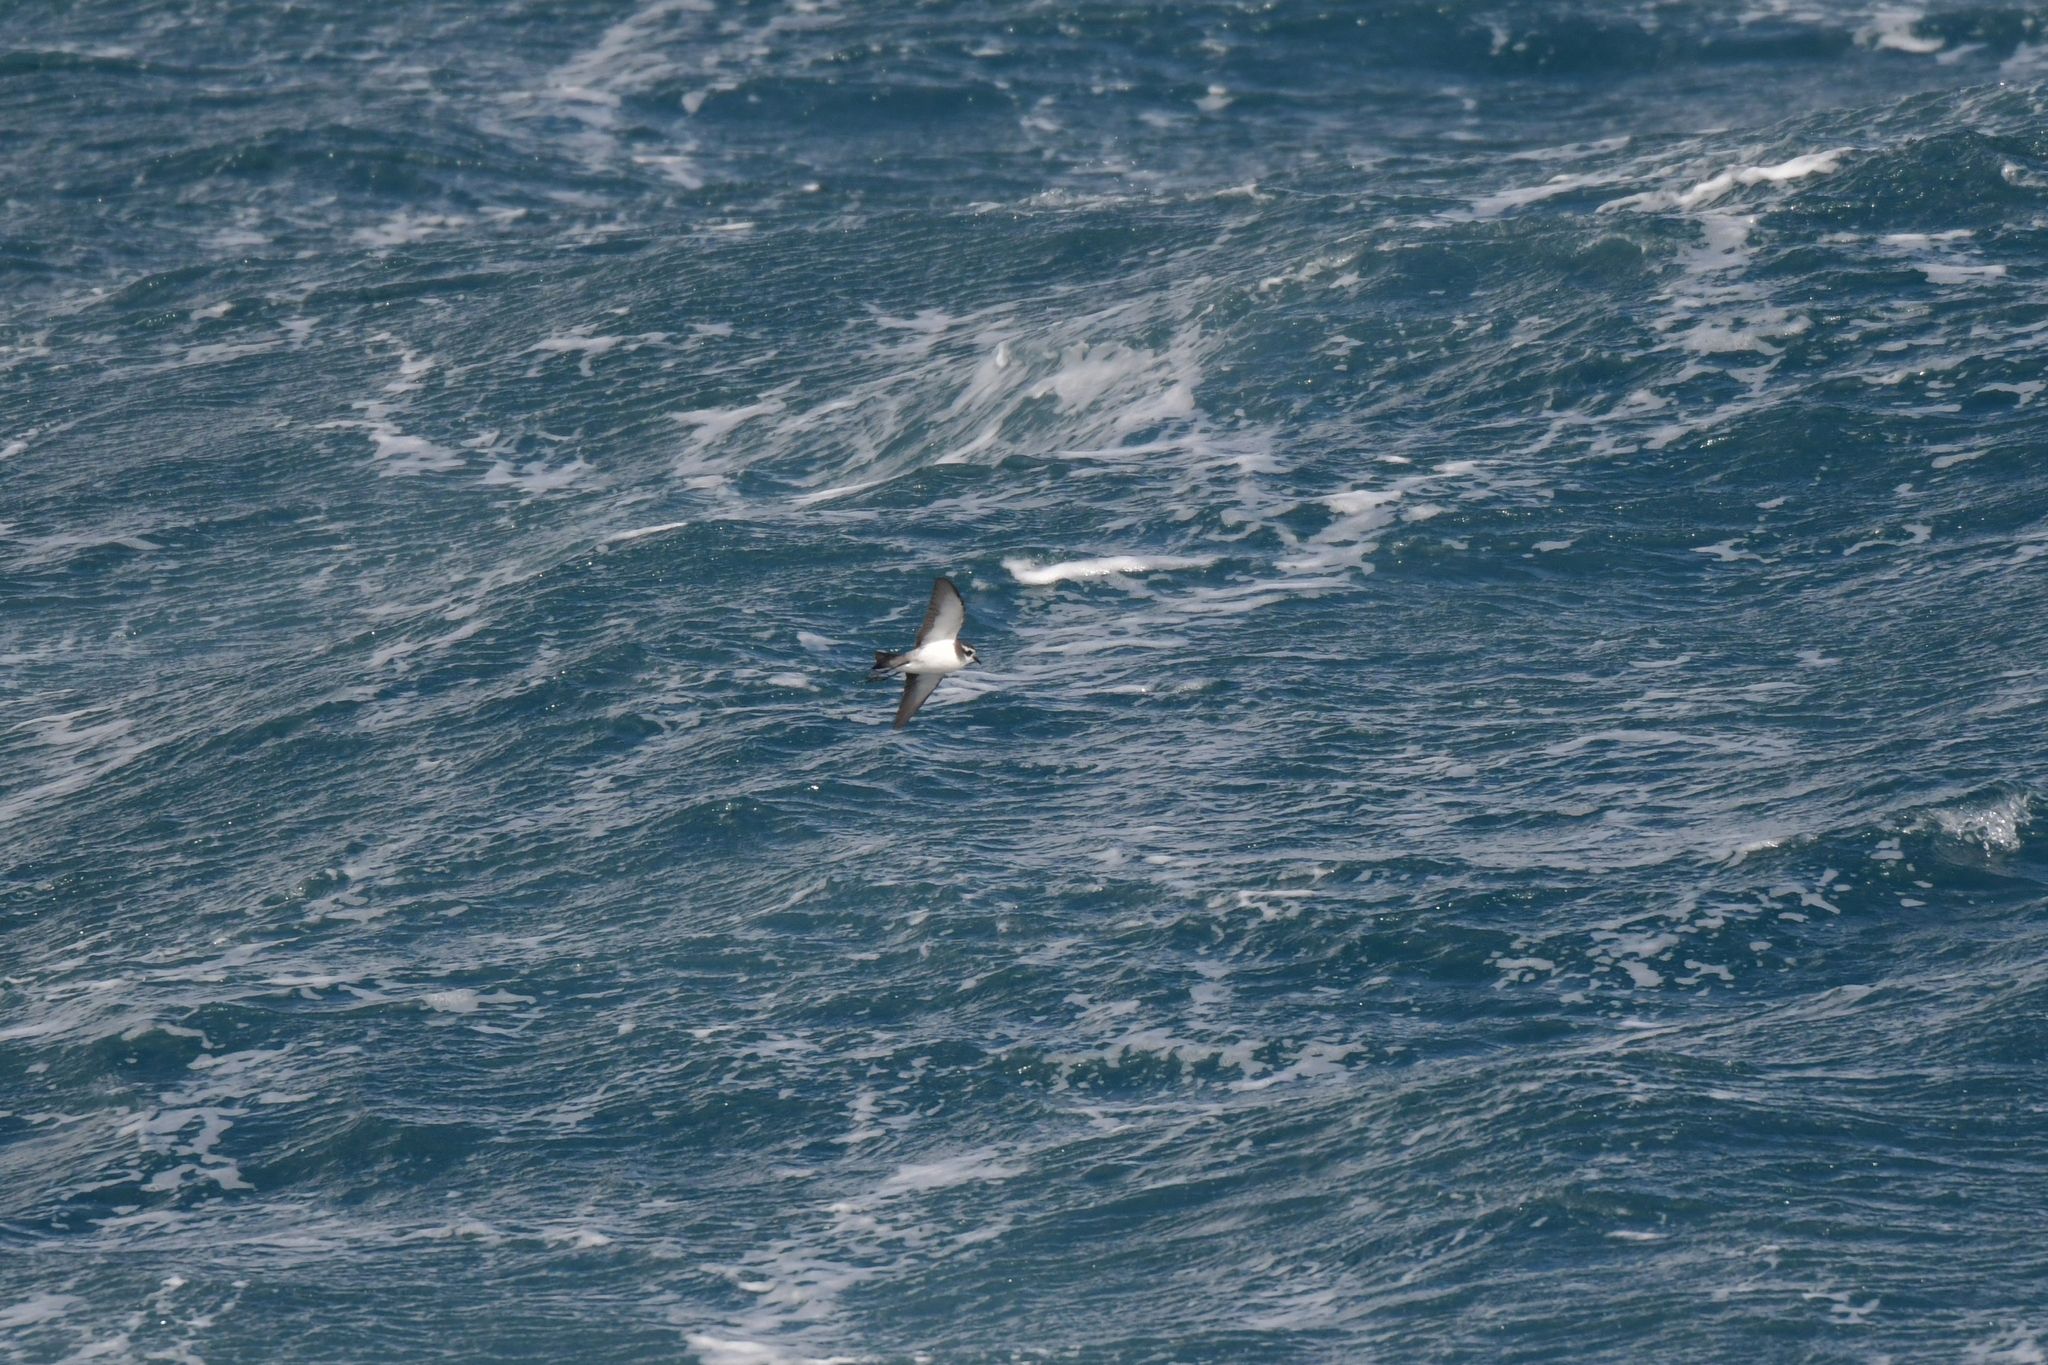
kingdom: Animalia
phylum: Chordata
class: Aves
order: Procellariiformes
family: Hydrobatidae
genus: Pelagodroma
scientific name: Pelagodroma marina
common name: White-faced storm-petrel
